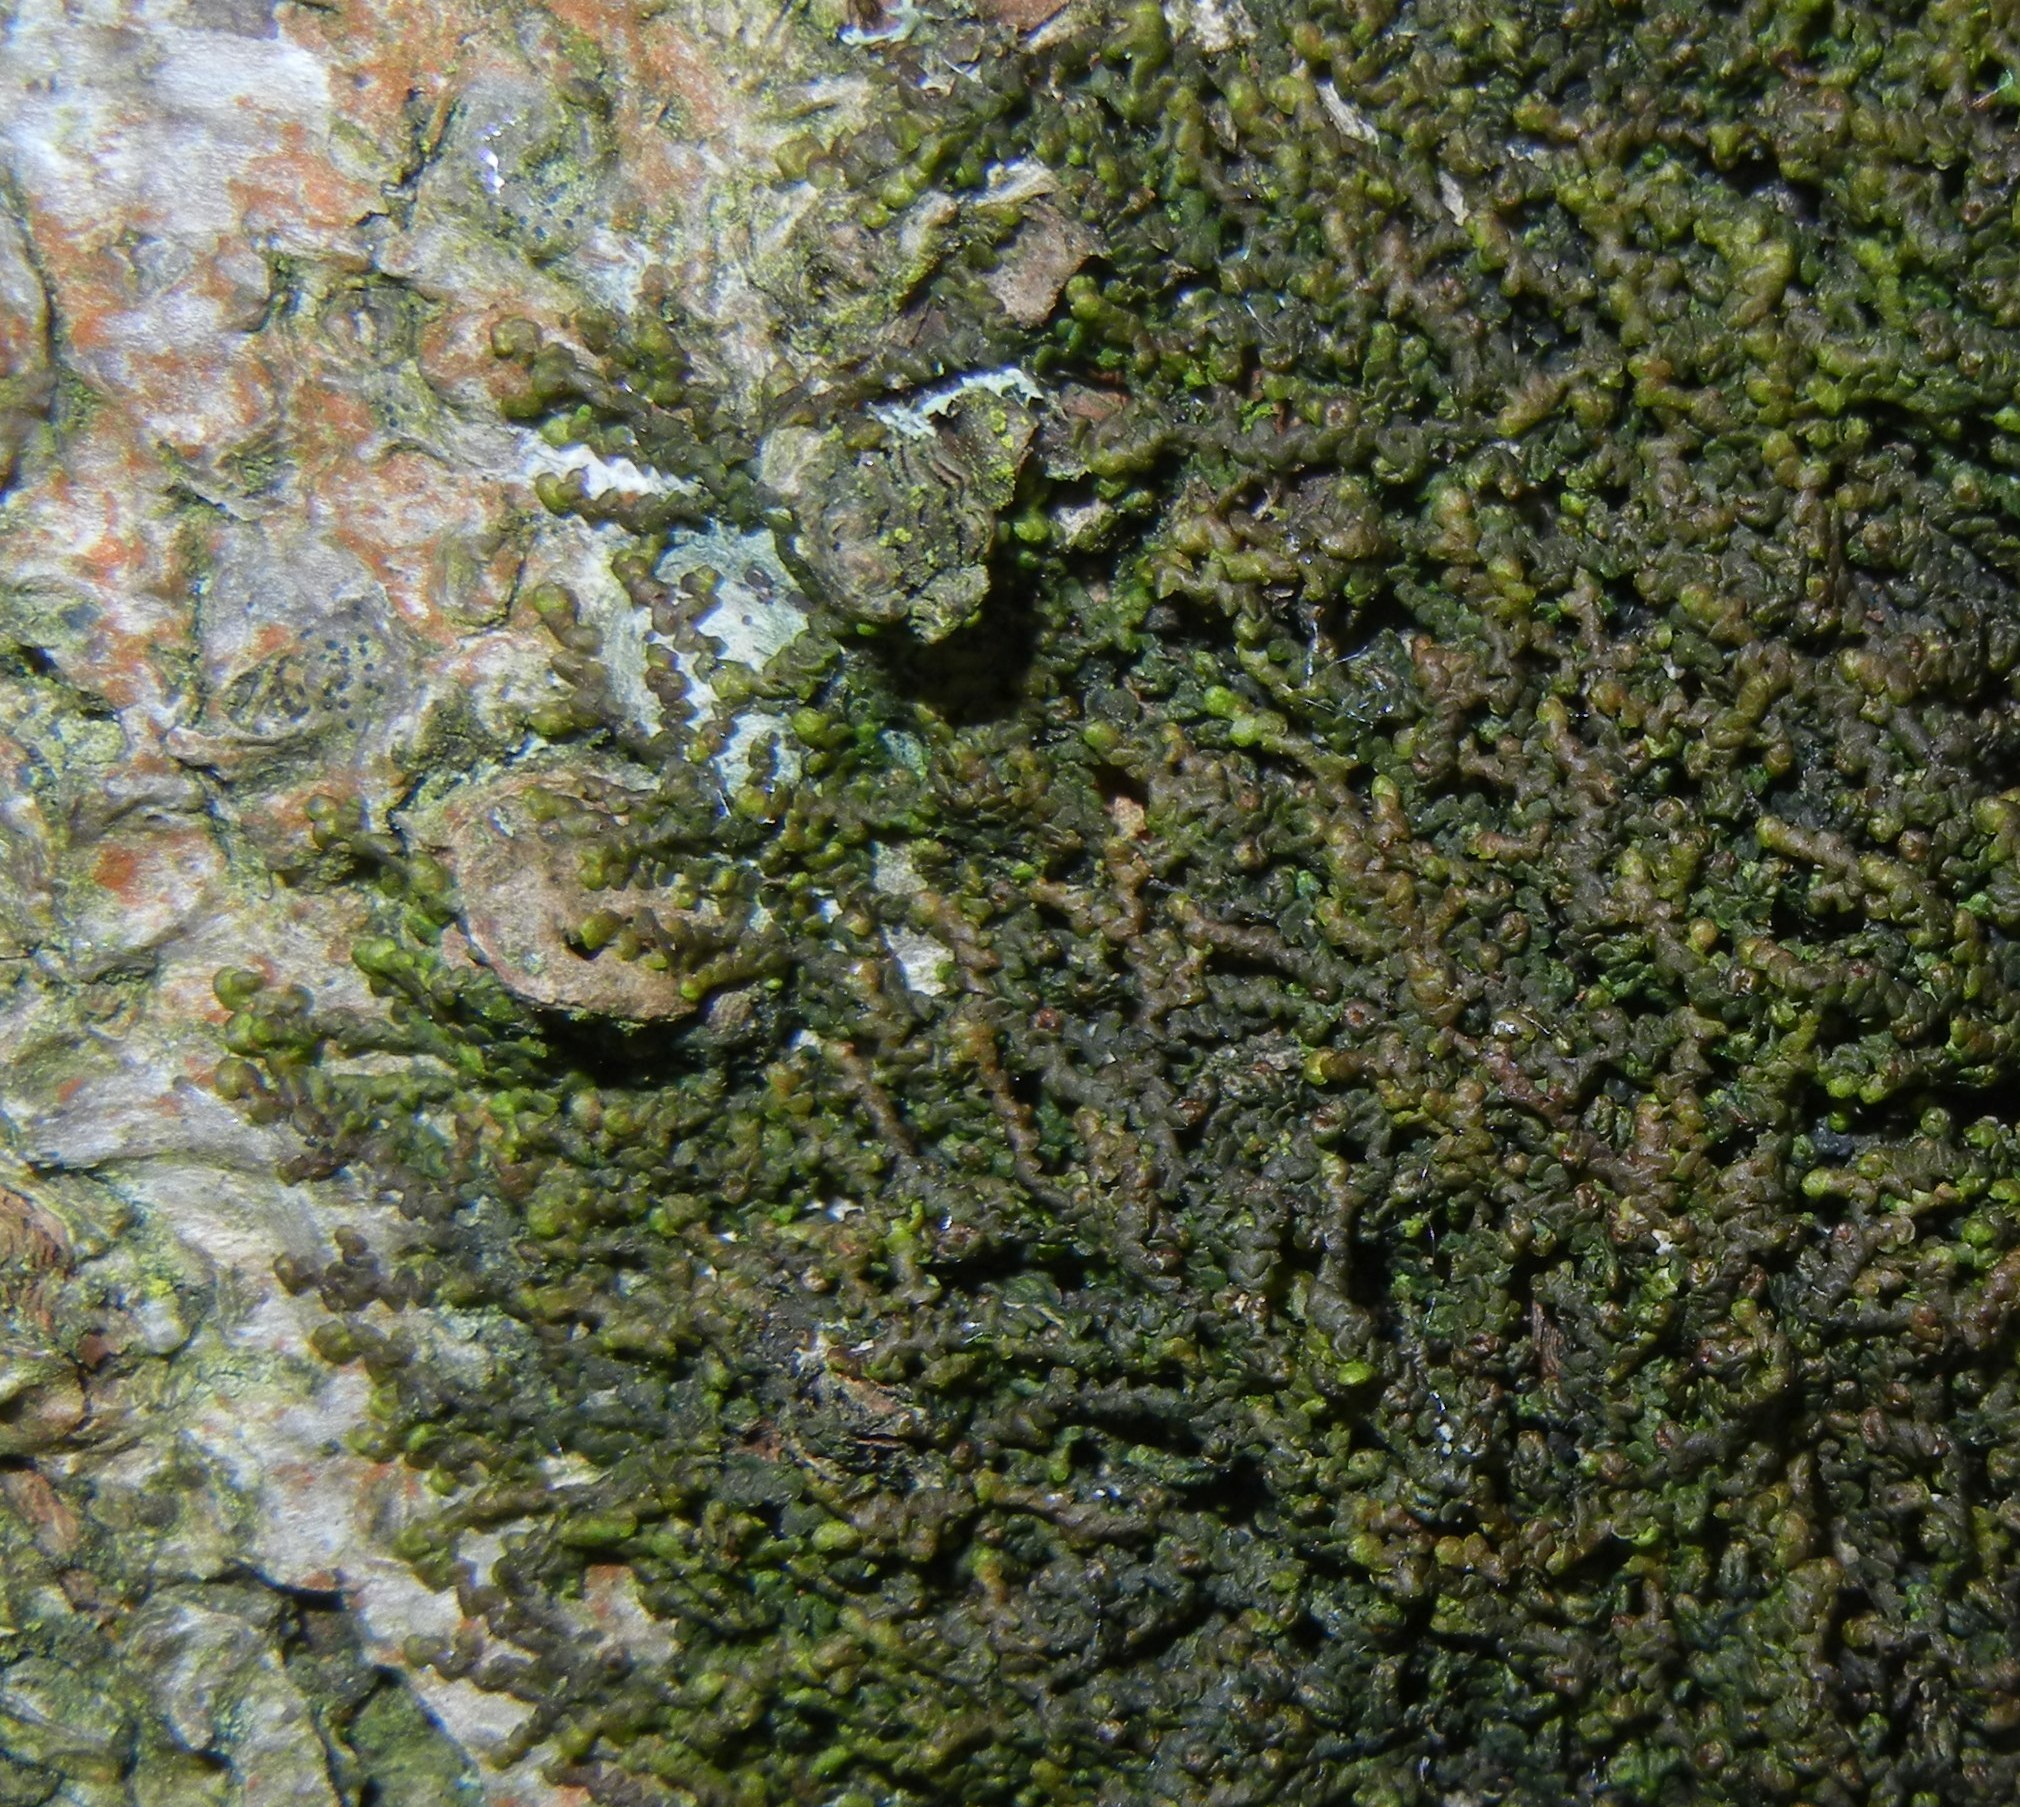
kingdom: Plantae
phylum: Marchantiophyta
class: Jungermanniopsida
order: Porellales
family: Frullaniaceae
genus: Frullania
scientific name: Frullania dilatata
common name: Dilated scalewort
